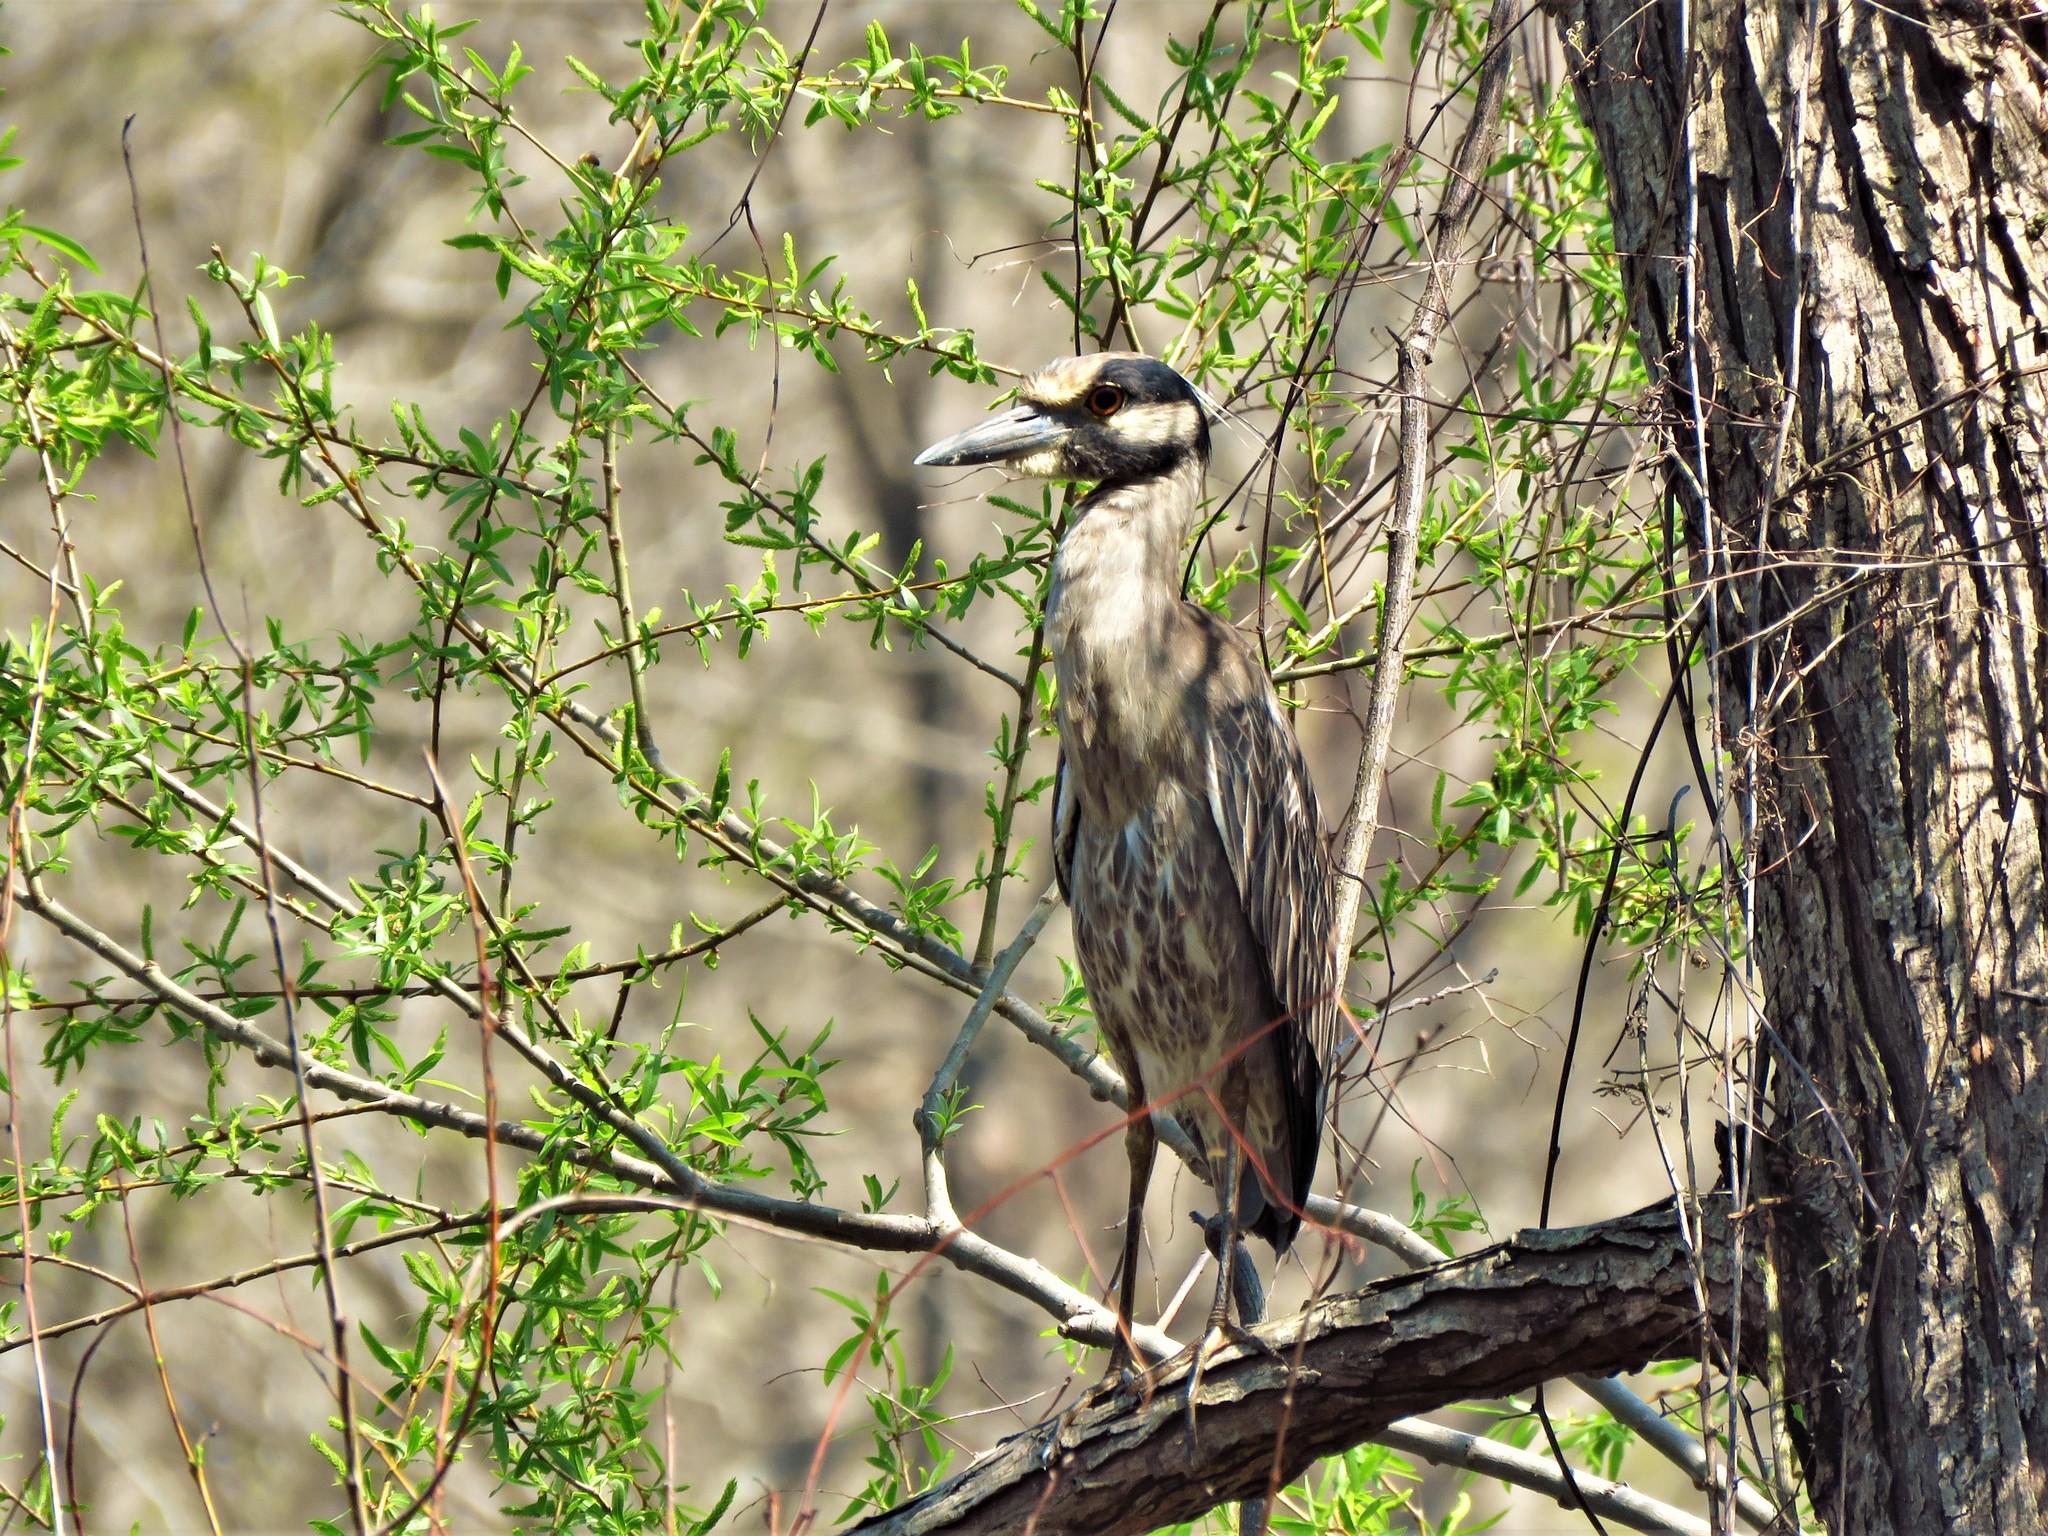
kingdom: Animalia
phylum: Chordata
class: Aves
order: Pelecaniformes
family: Ardeidae
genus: Nyctanassa
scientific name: Nyctanassa violacea
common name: Yellow-crowned night heron
